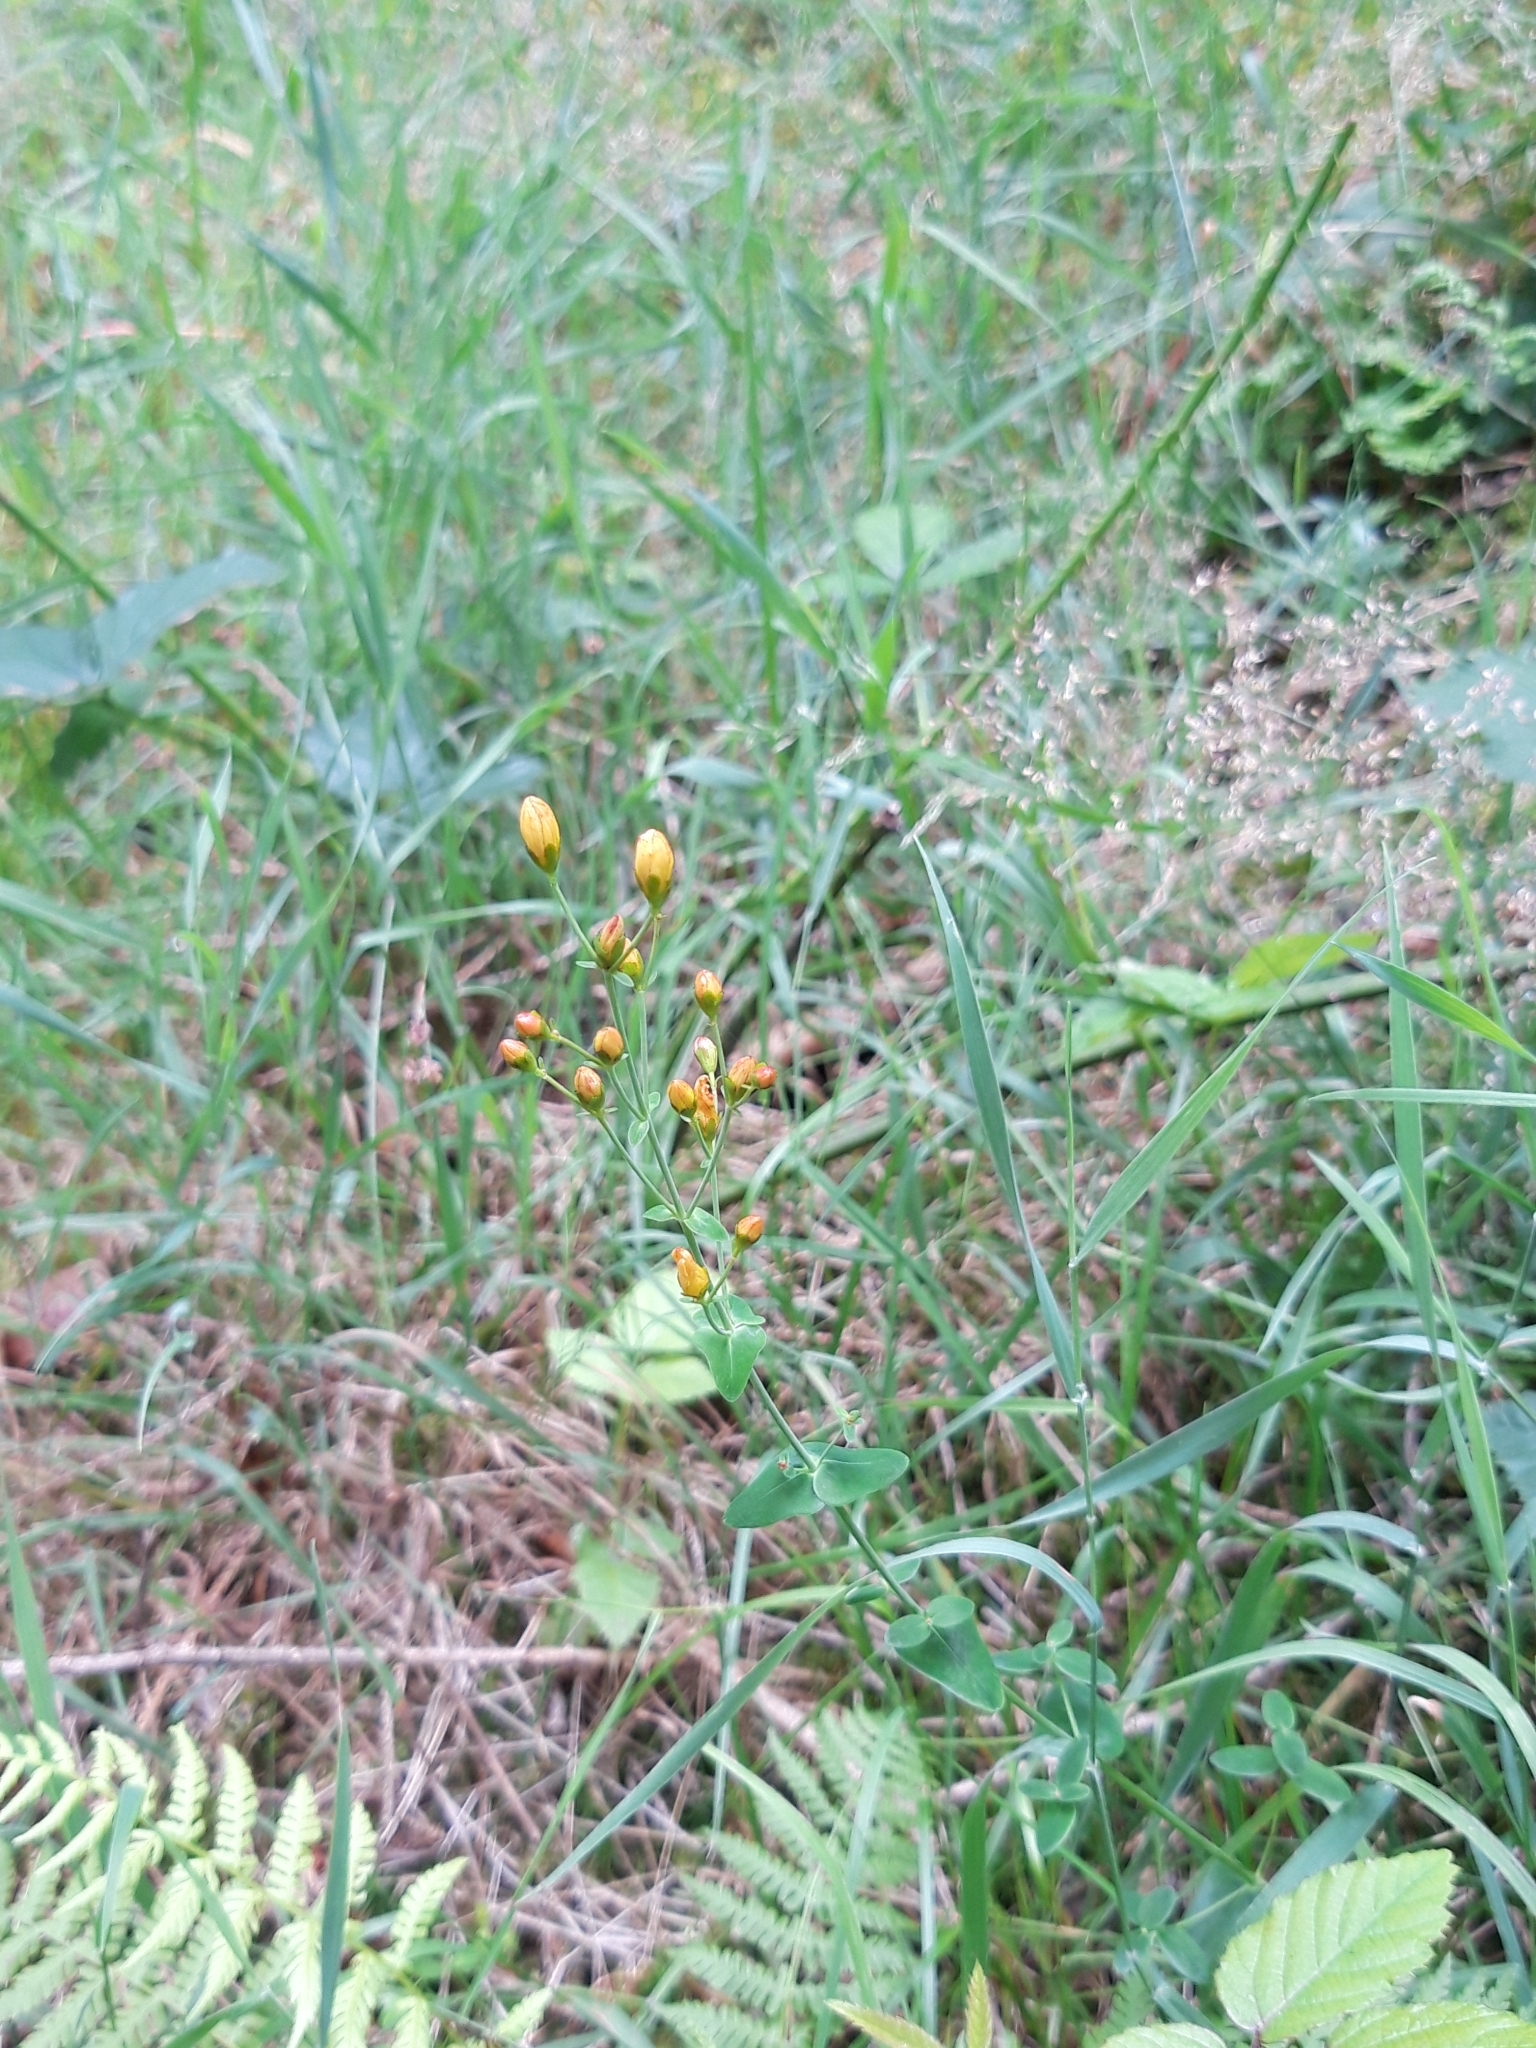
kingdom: Plantae
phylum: Tracheophyta
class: Magnoliopsida
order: Malpighiales
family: Hypericaceae
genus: Hypericum
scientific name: Hypericum pulchrum
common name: Slender st. john's-wort
